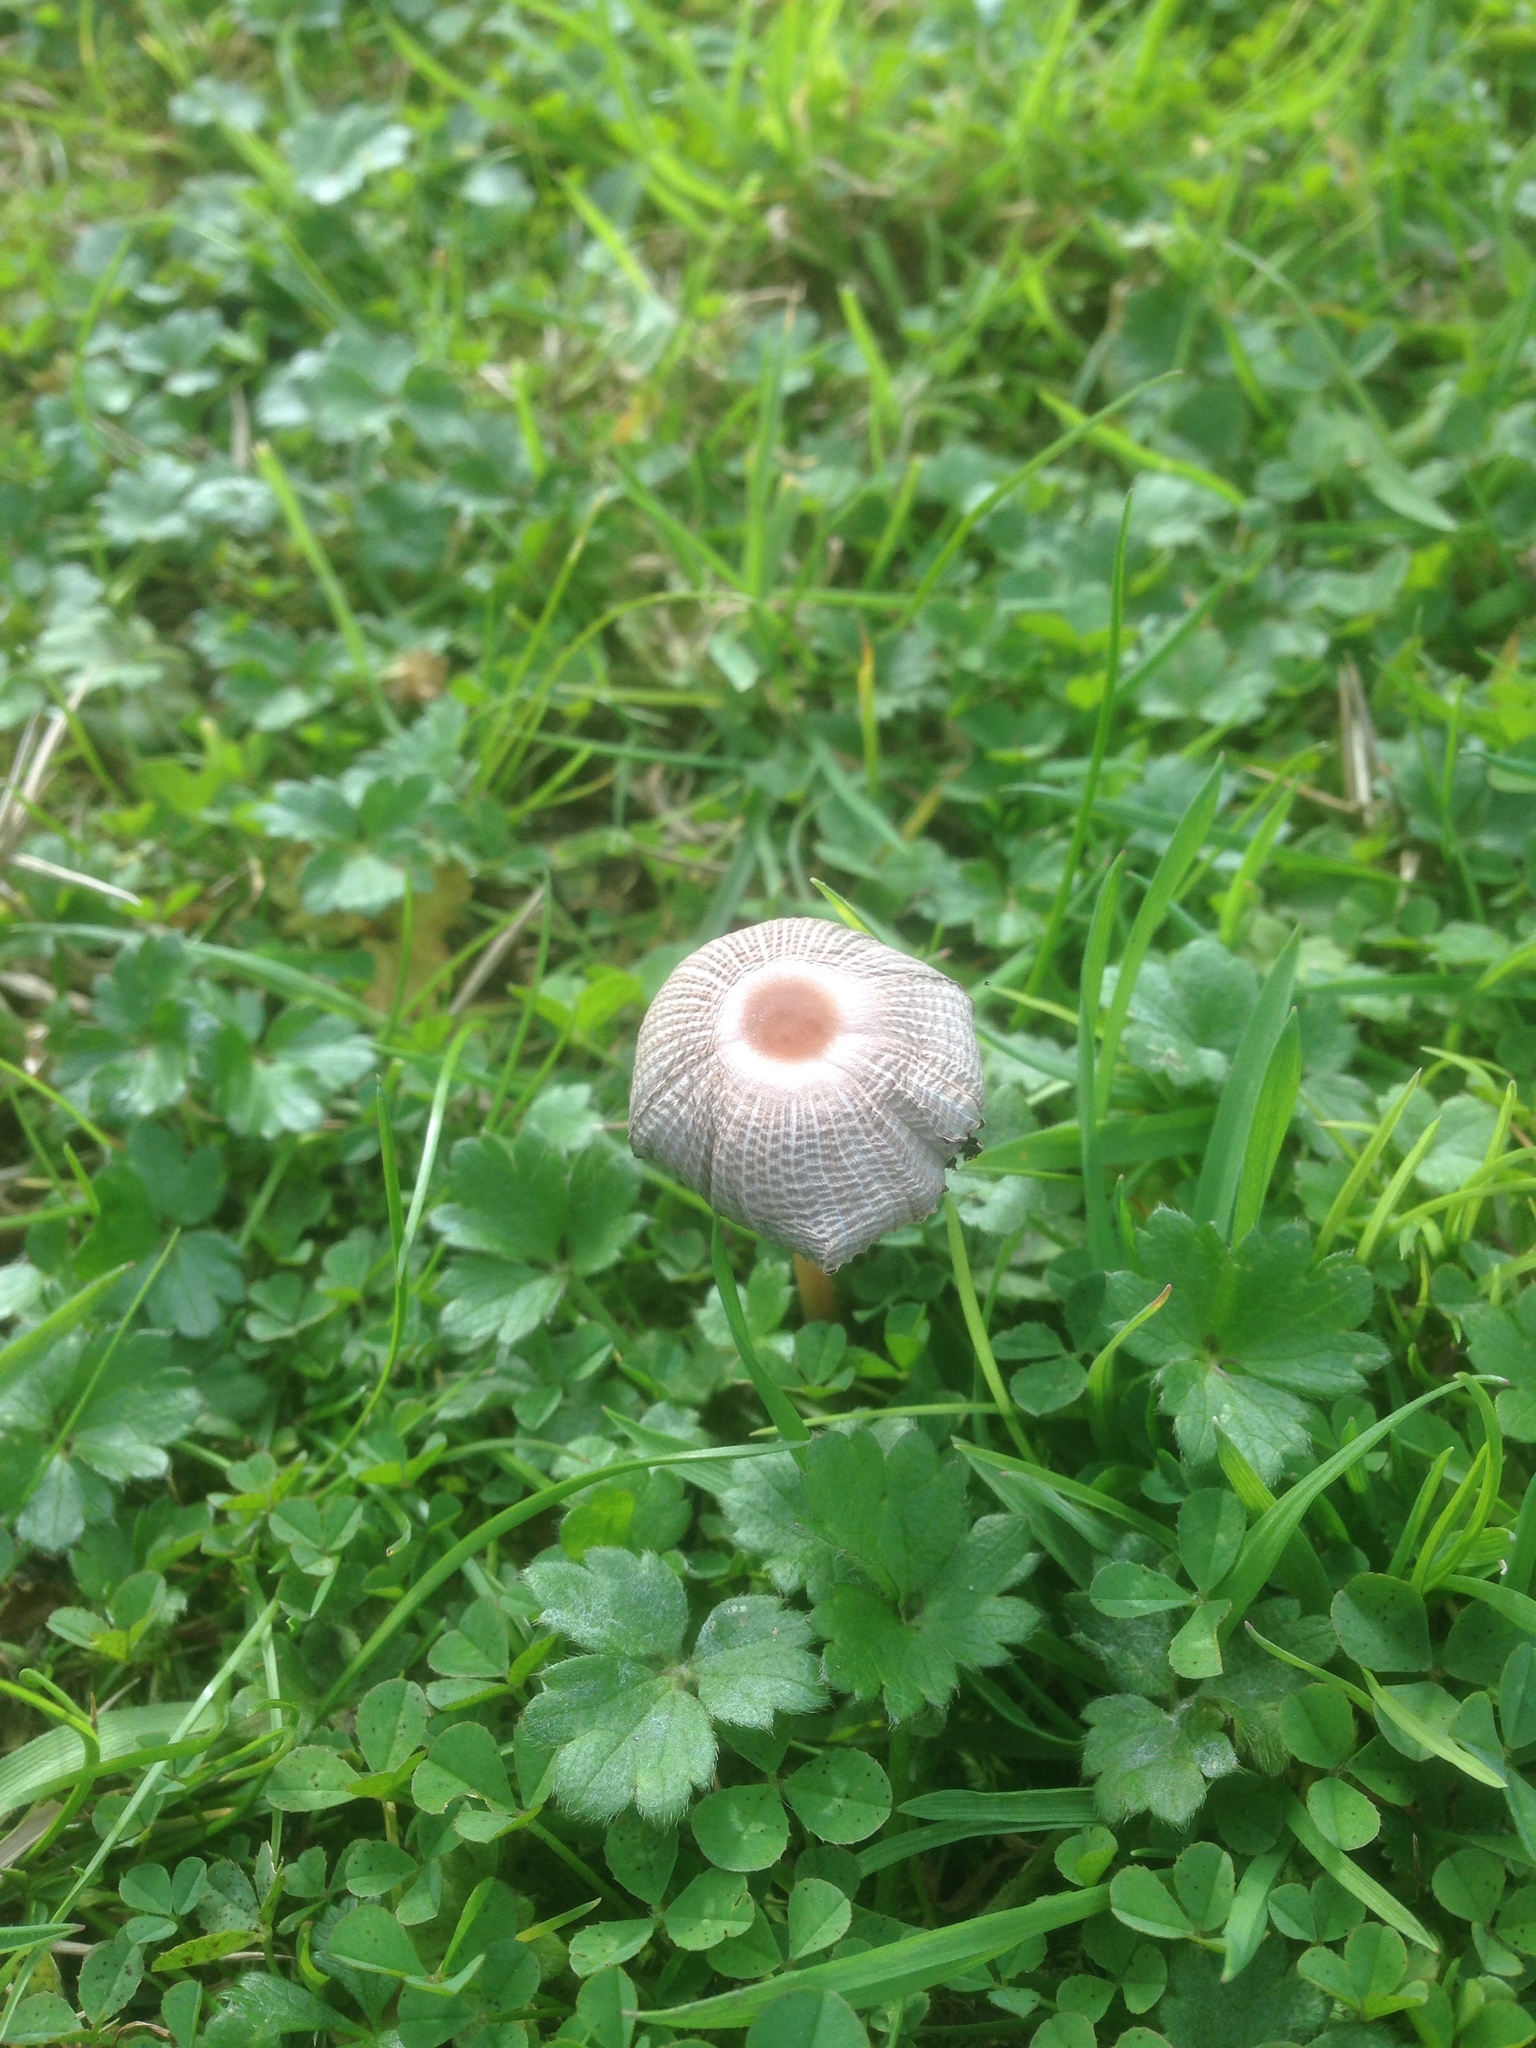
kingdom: Fungi
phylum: Basidiomycota
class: Agaricomycetes
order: Agaricales
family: Psathyrellaceae
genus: Parasola
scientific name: Parasola
